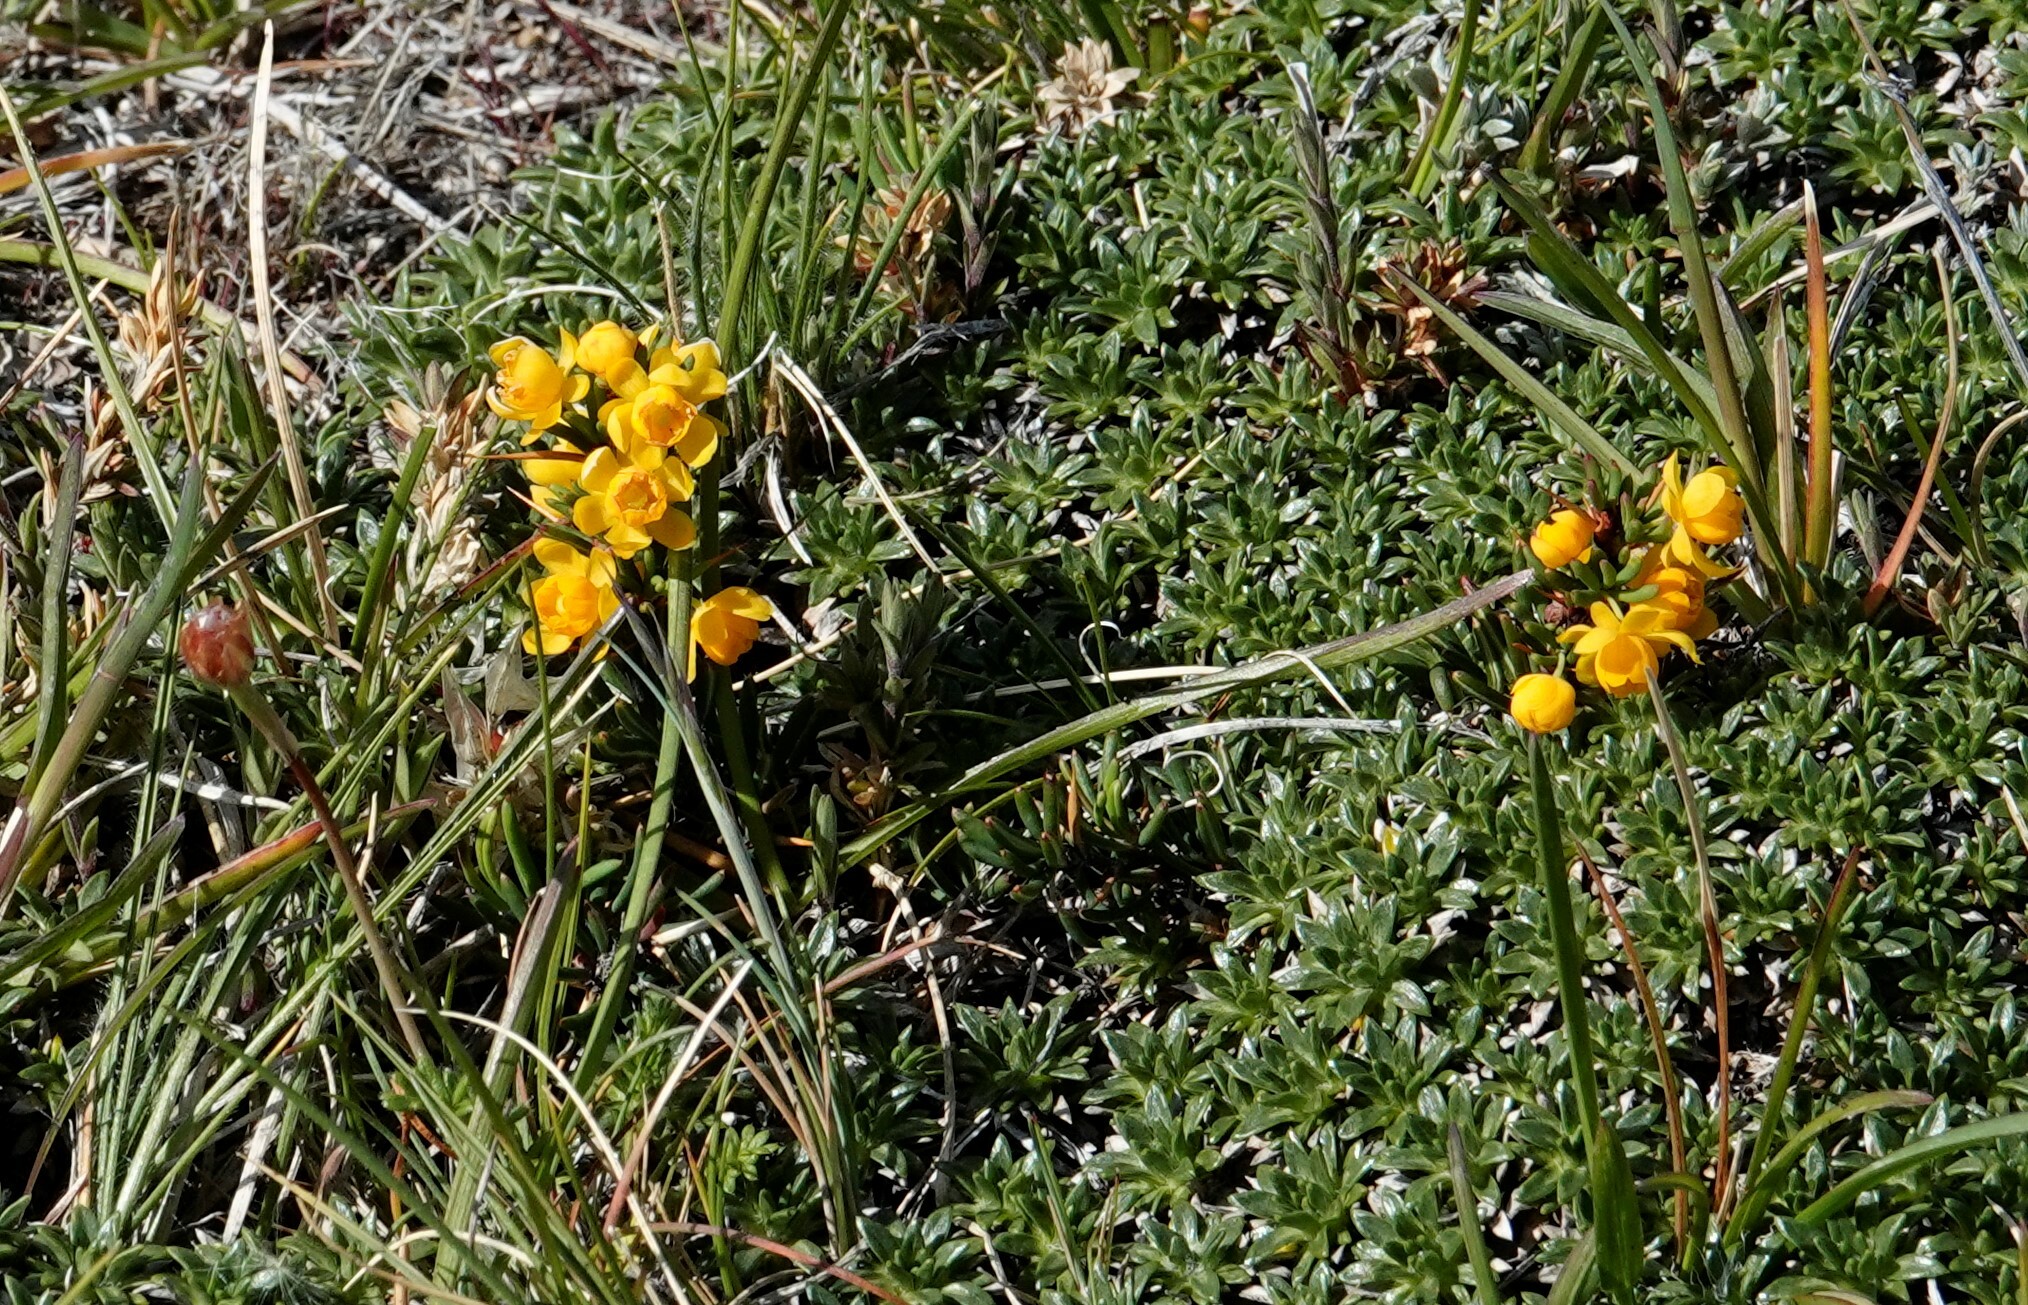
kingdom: Plantae
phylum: Tracheophyta
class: Magnoliopsida
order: Ranunculales
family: Berberidaceae
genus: Berberis
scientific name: Berberis empetrifolia
